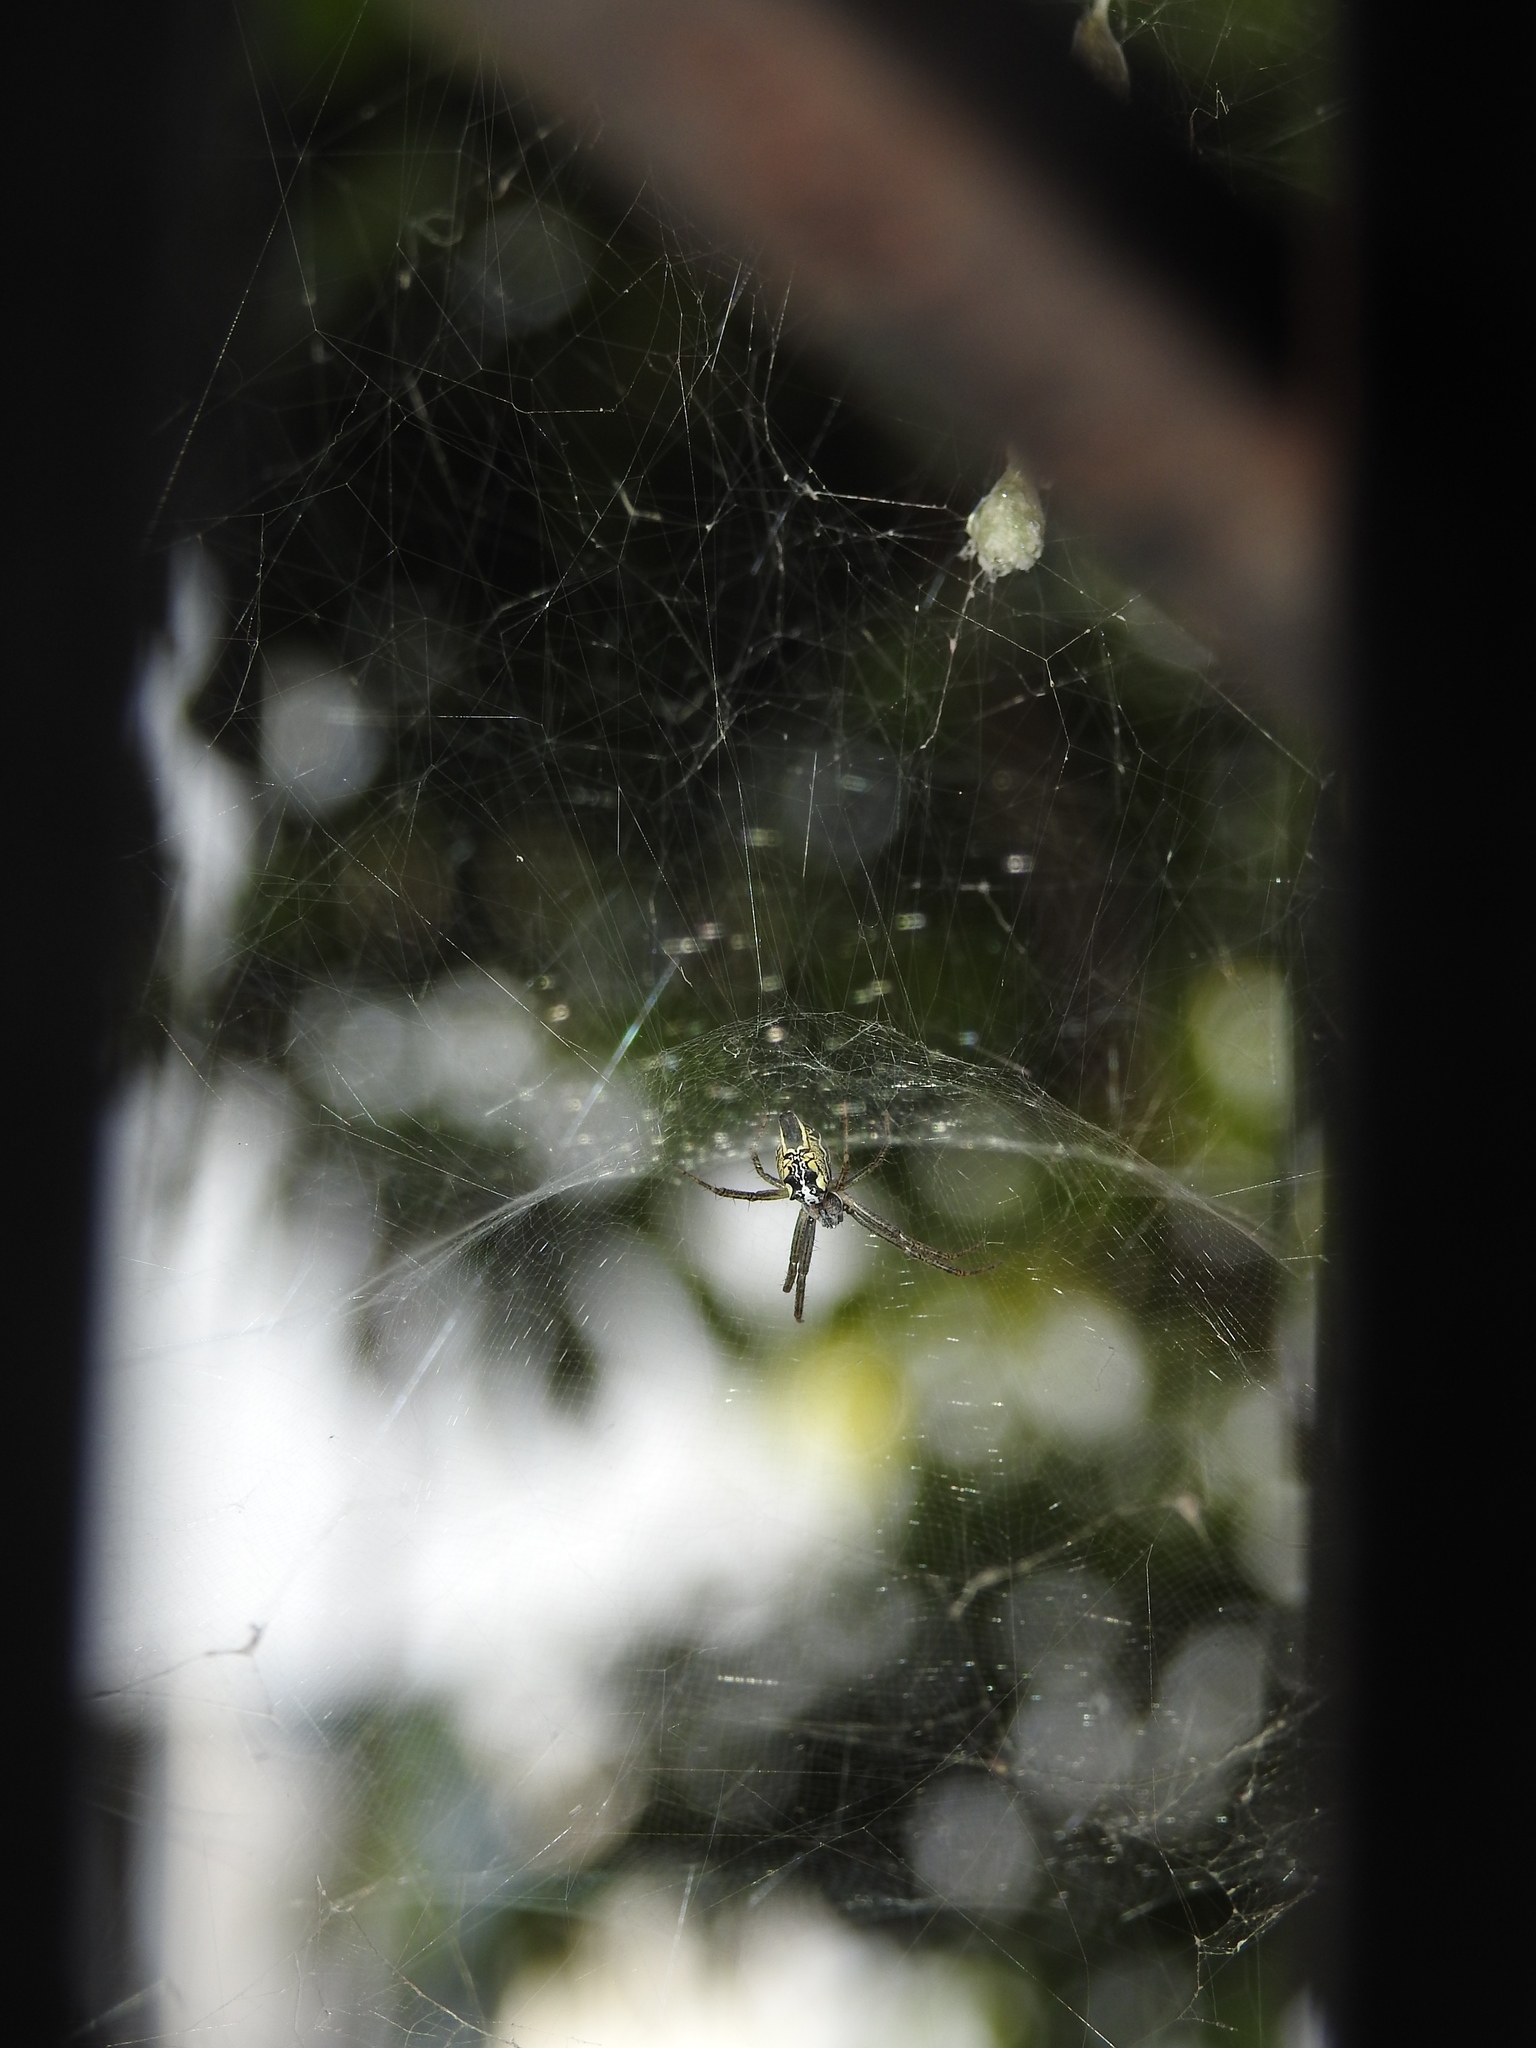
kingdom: Animalia
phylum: Arthropoda
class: Arachnida
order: Araneae
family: Araneidae
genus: Cyrtophora
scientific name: Cyrtophora cicatrosa
